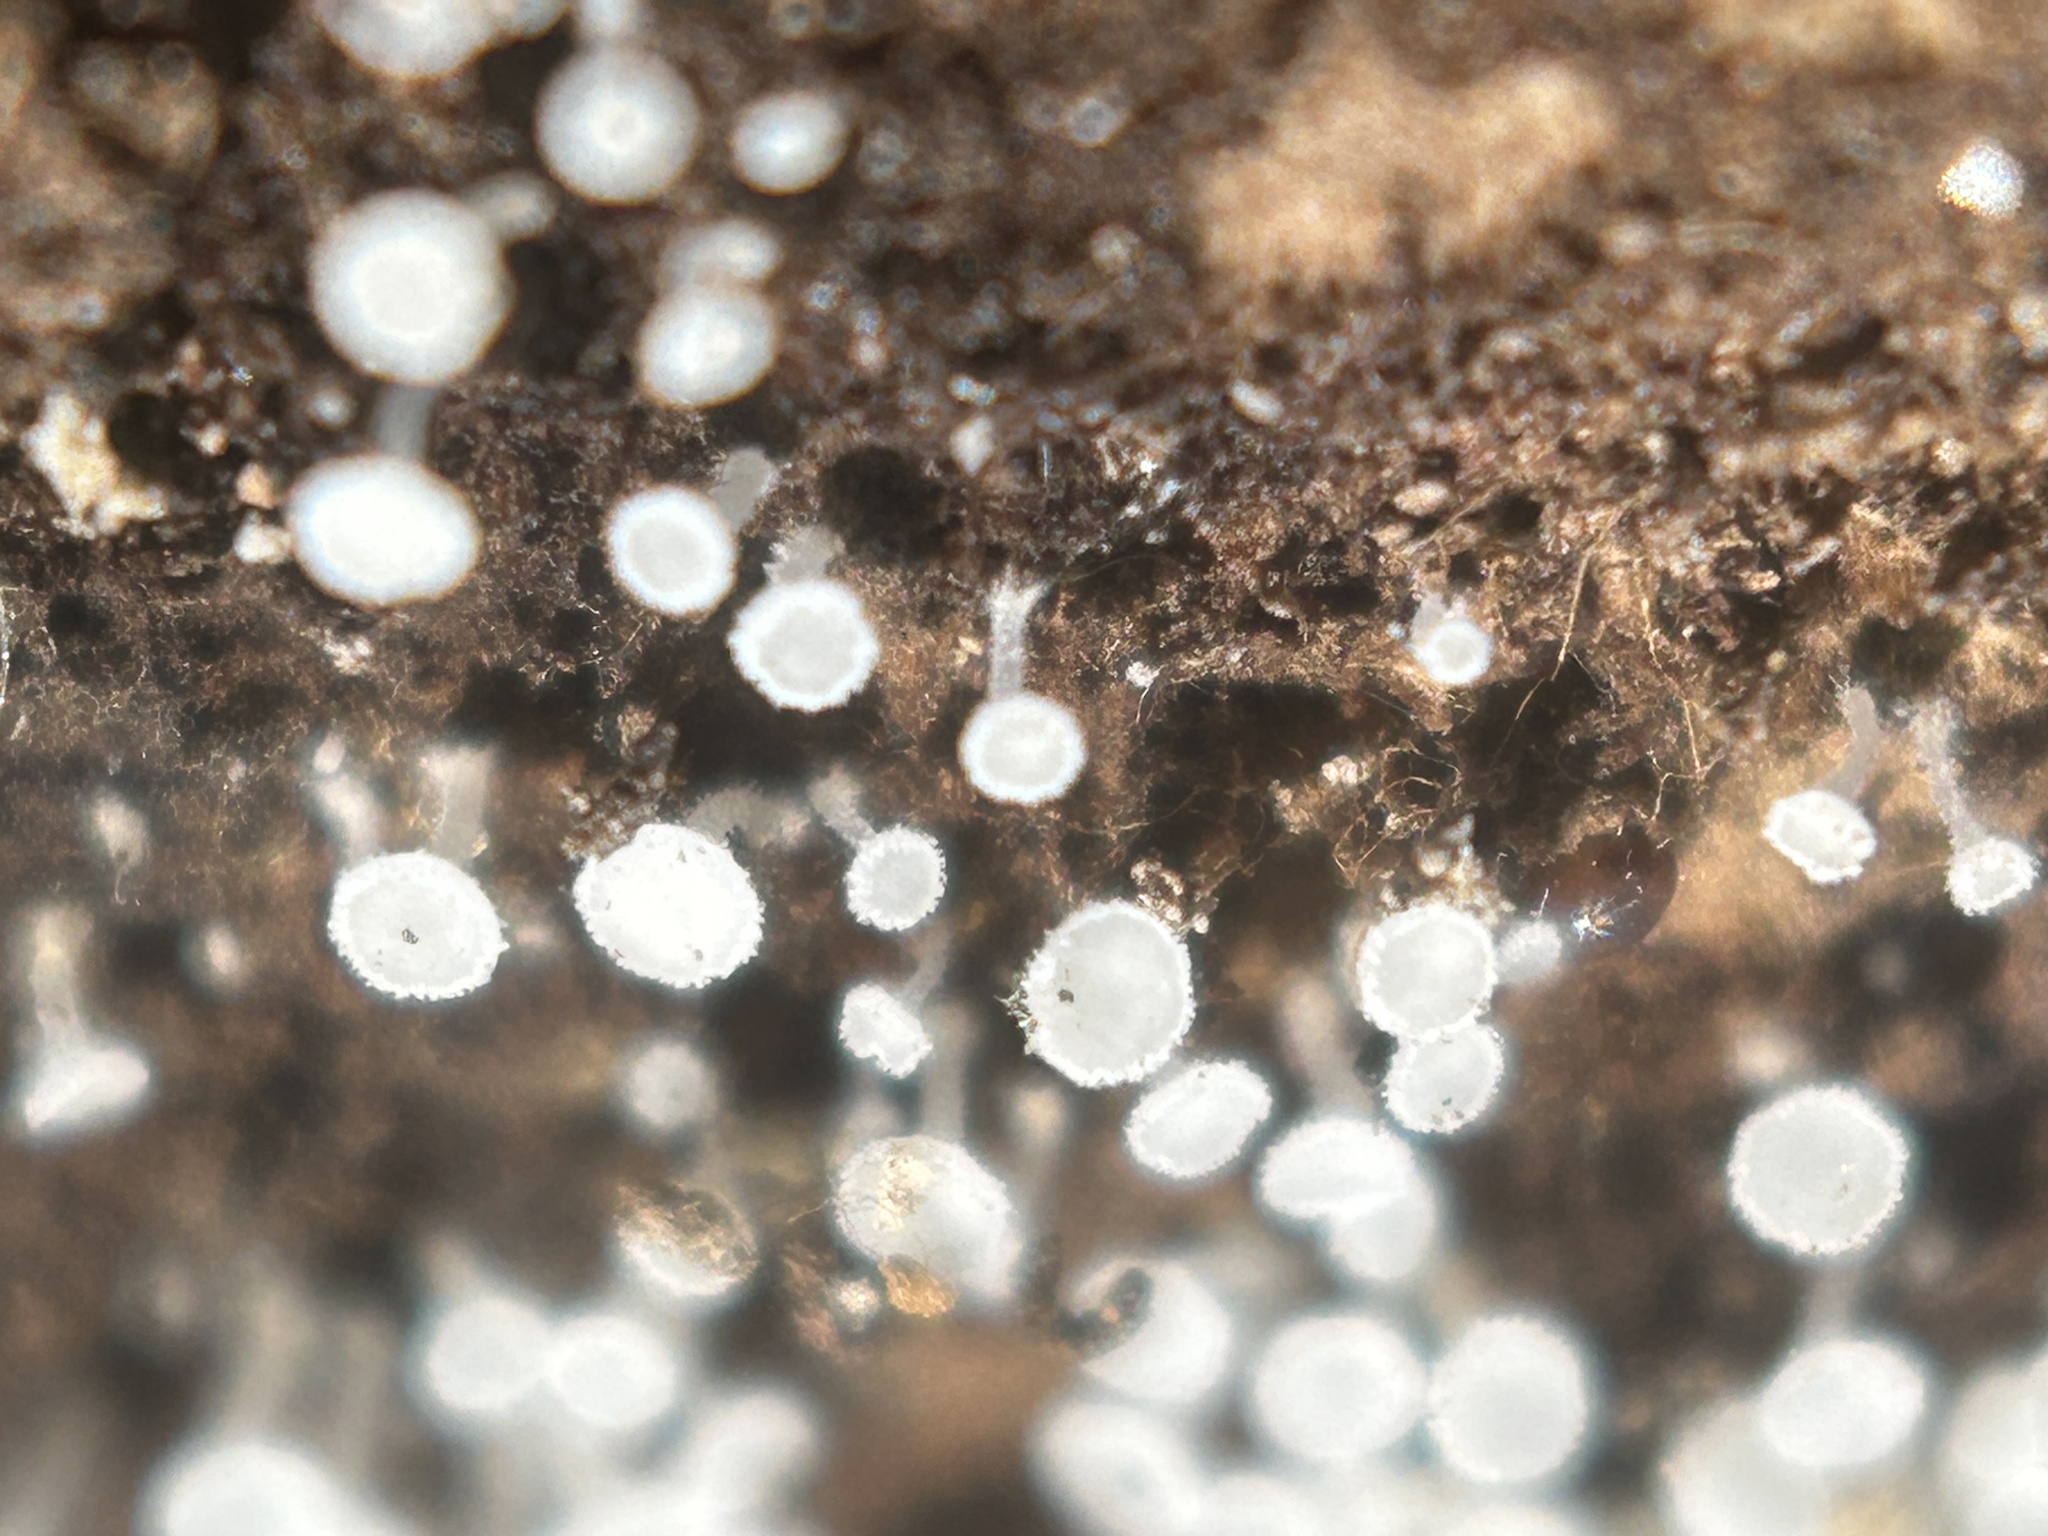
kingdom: Fungi
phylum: Ascomycota
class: Leotiomycetes
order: Helotiales
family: Lachnaceae
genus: Lachnum
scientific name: Lachnum virgineum
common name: Snowy disco
